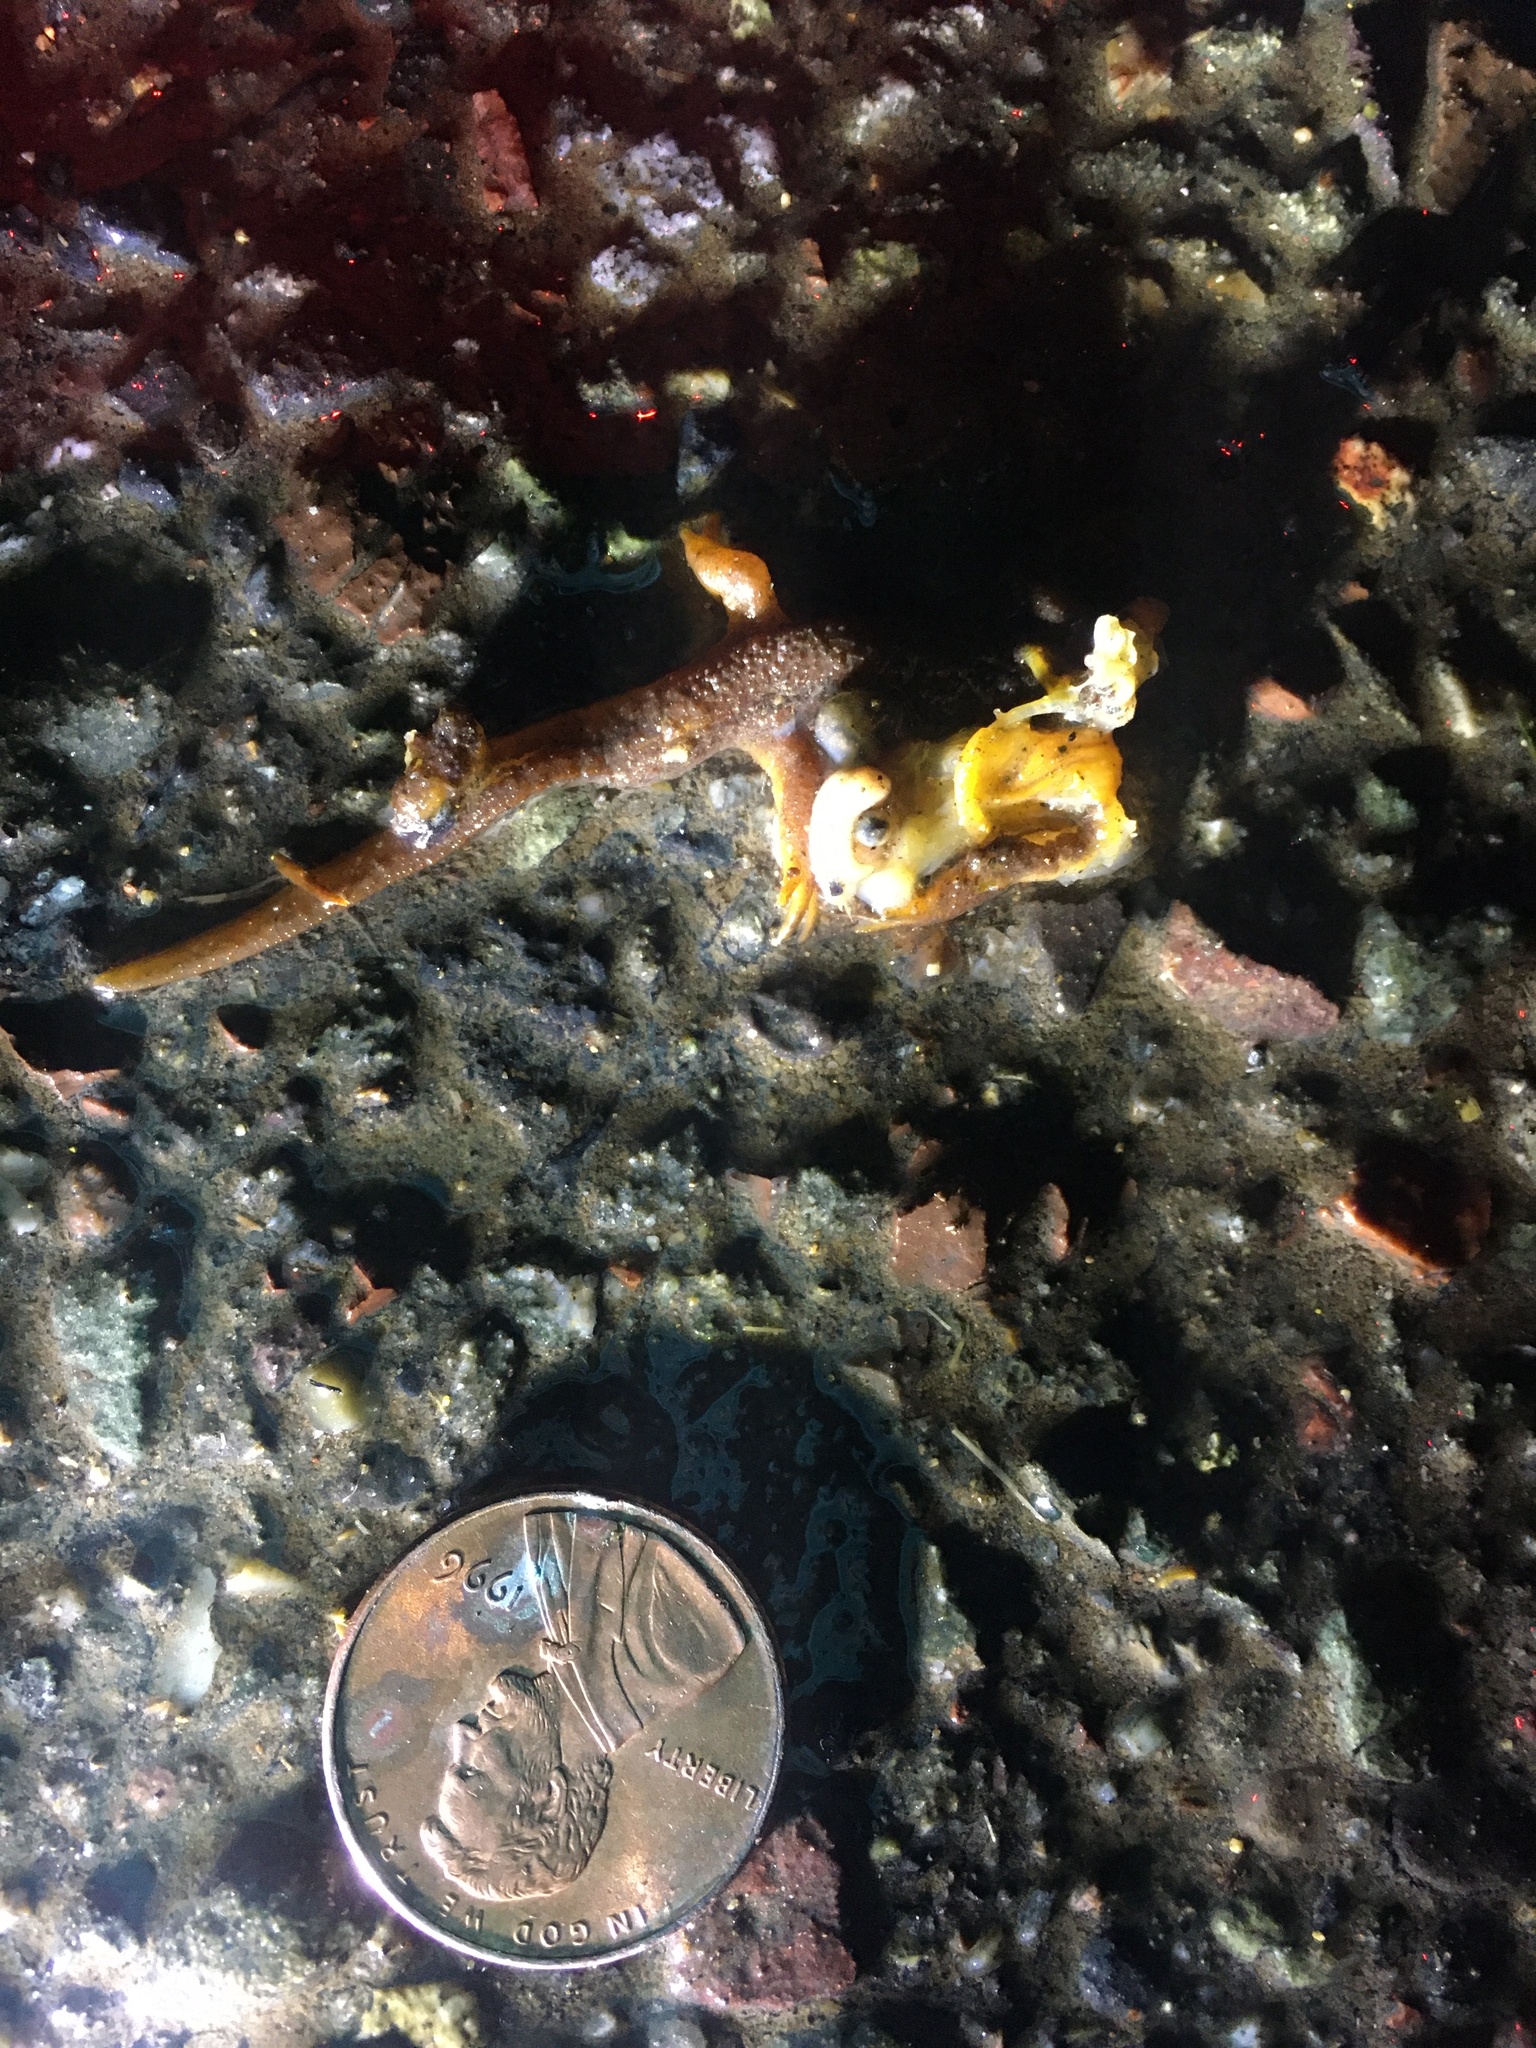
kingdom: Animalia
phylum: Chordata
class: Amphibia
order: Caudata
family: Salamandridae
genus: Taricha
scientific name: Taricha
